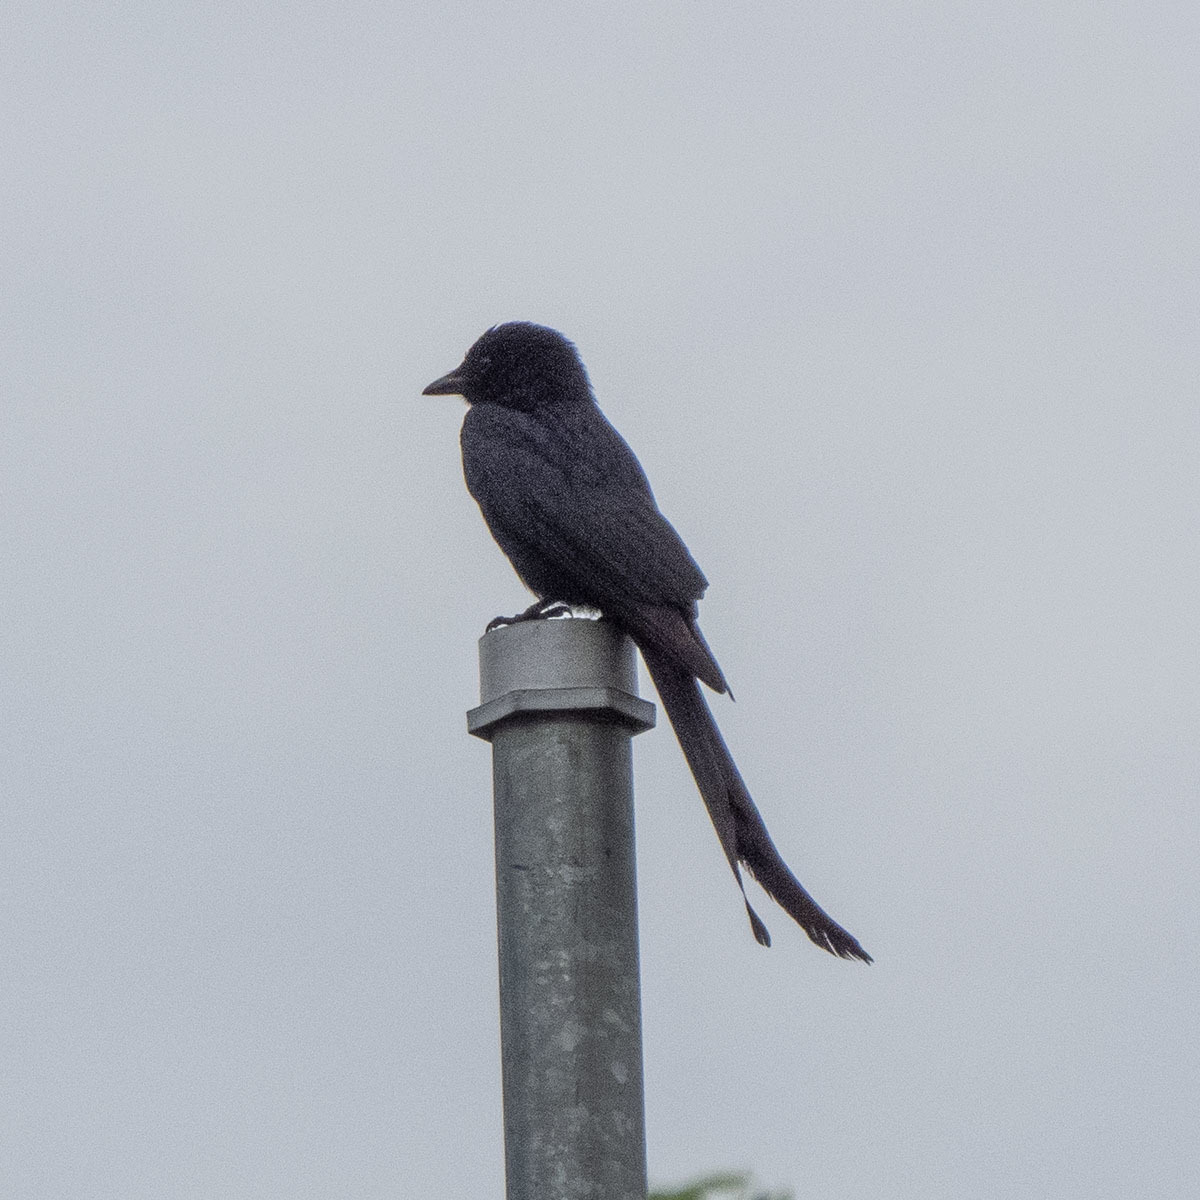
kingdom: Animalia
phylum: Chordata
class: Aves
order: Passeriformes
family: Dicruridae
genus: Dicrurus
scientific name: Dicrurus macrocercus
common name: Black drongo
